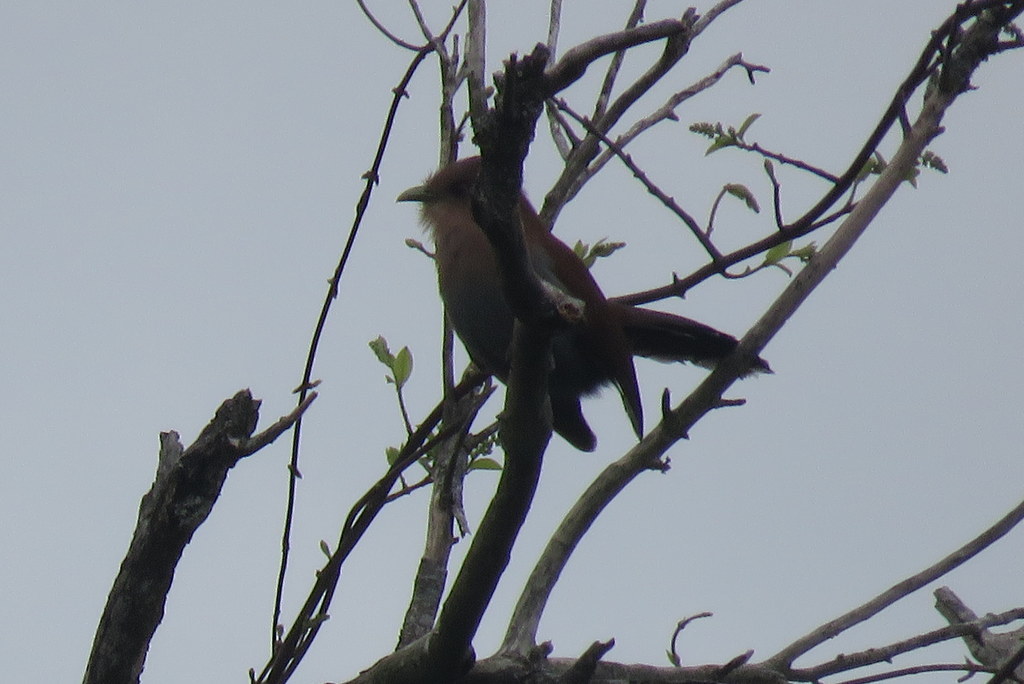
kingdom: Animalia
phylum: Chordata
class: Aves
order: Cuculiformes
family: Cuculidae
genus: Piaya
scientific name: Piaya cayana
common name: Squirrel cuckoo
